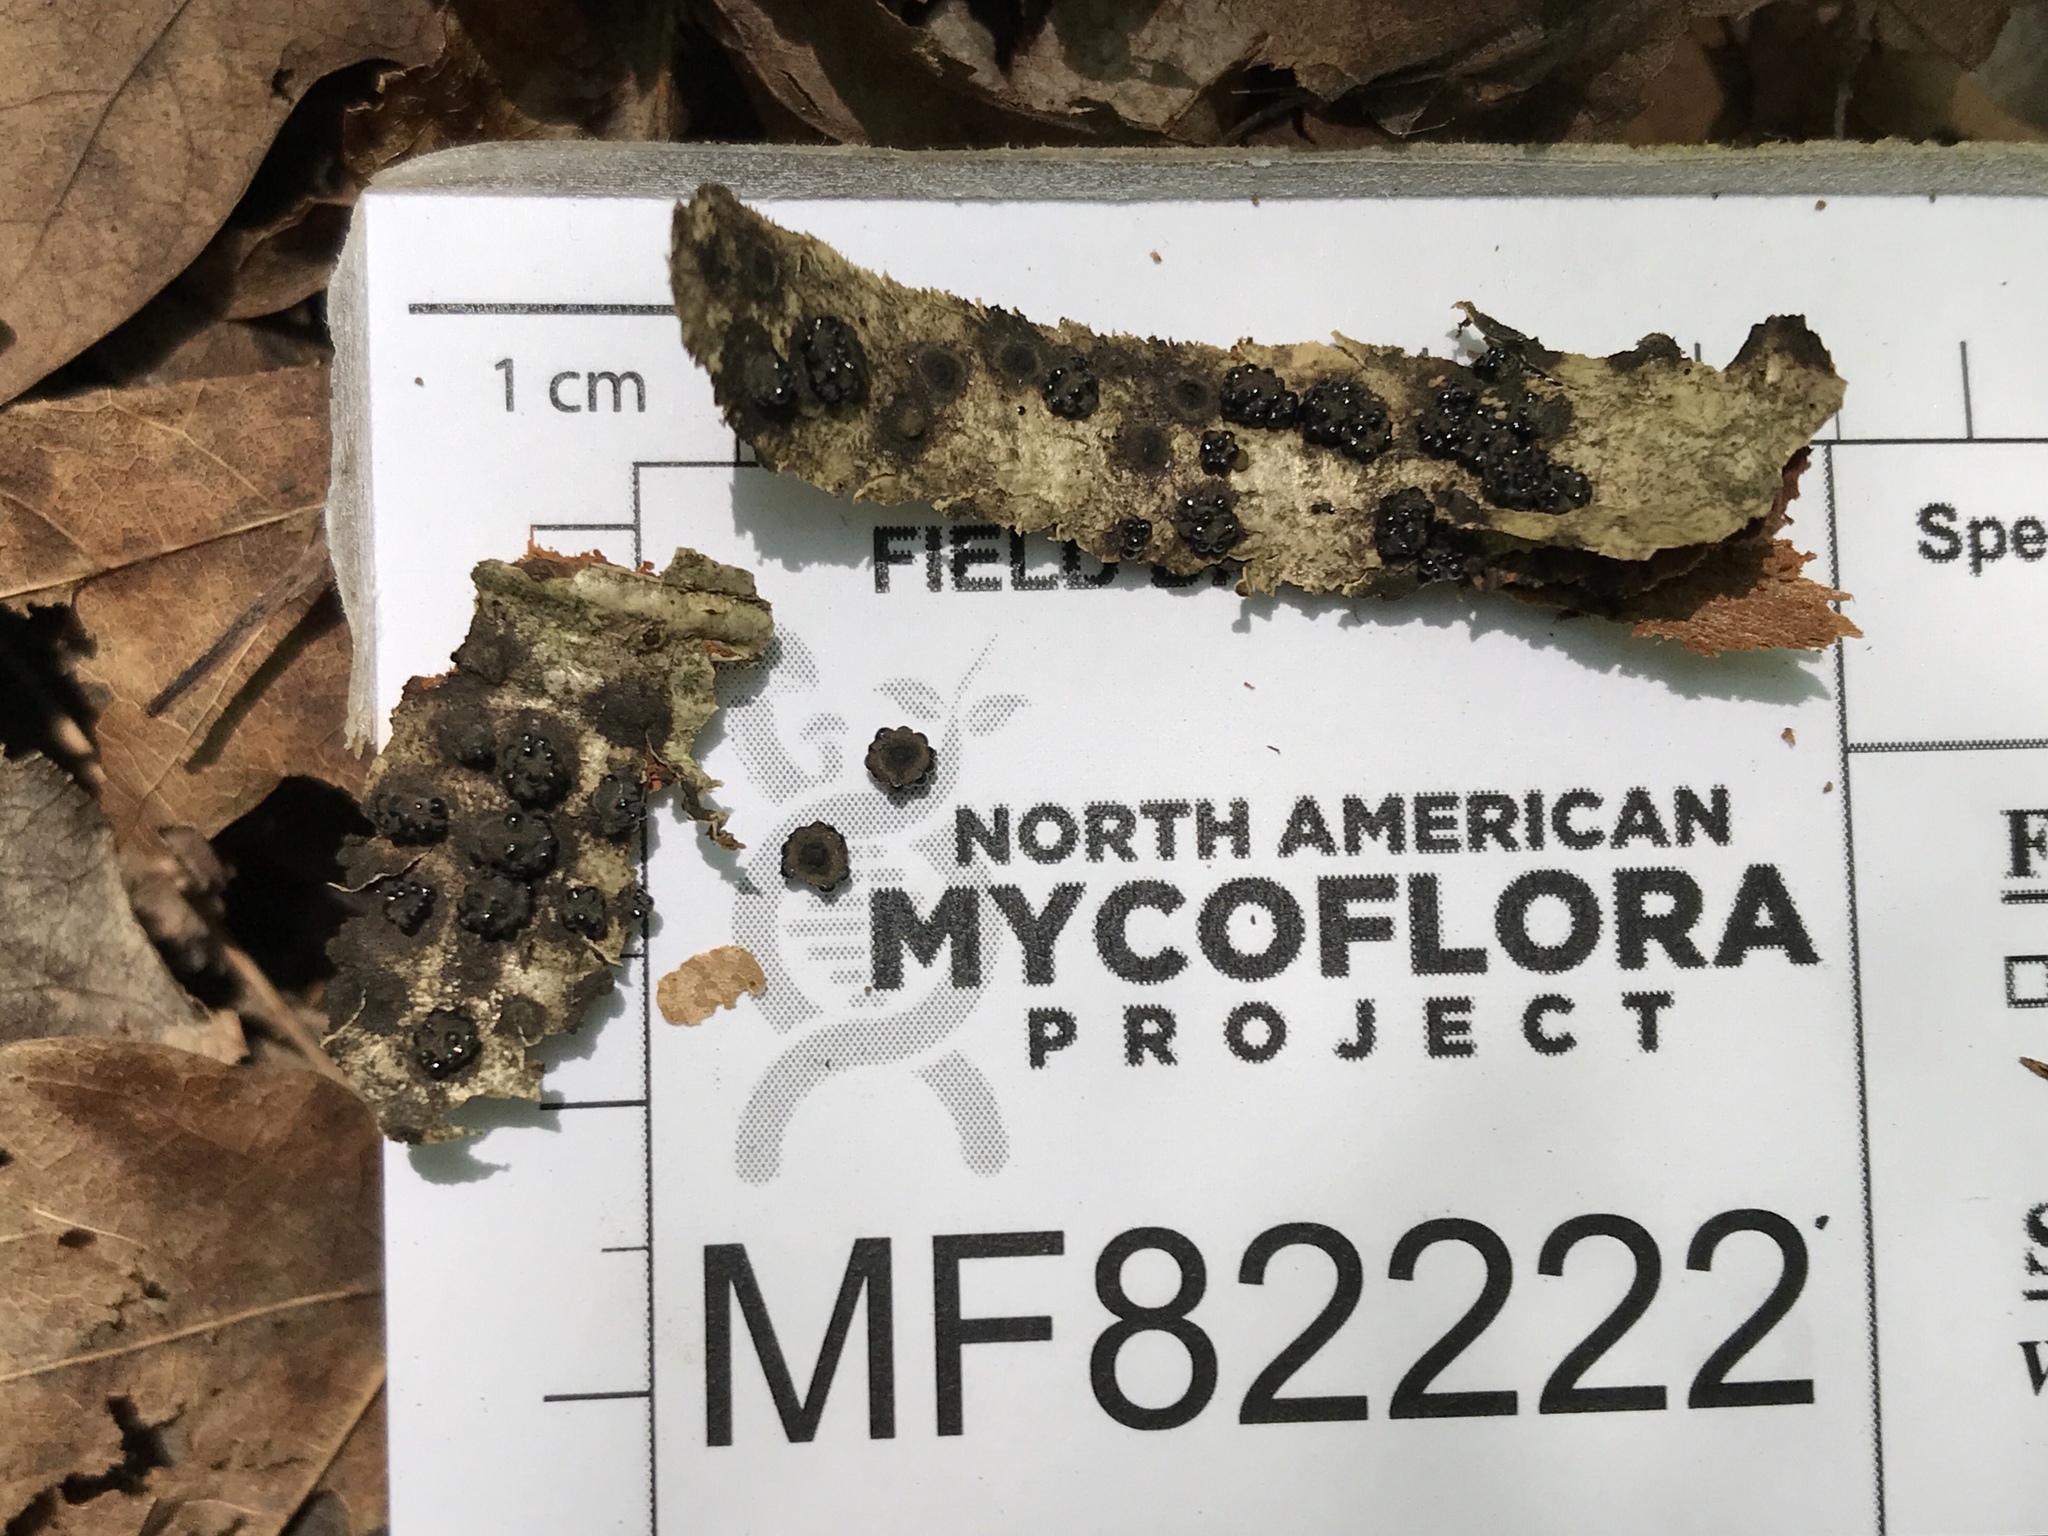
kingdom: Fungi
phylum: Ascomycota
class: Sordariomycetes
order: Xylariales
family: Hypoxylaceae
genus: Annulohypoxylon
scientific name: Annulohypoxylon annulatum
